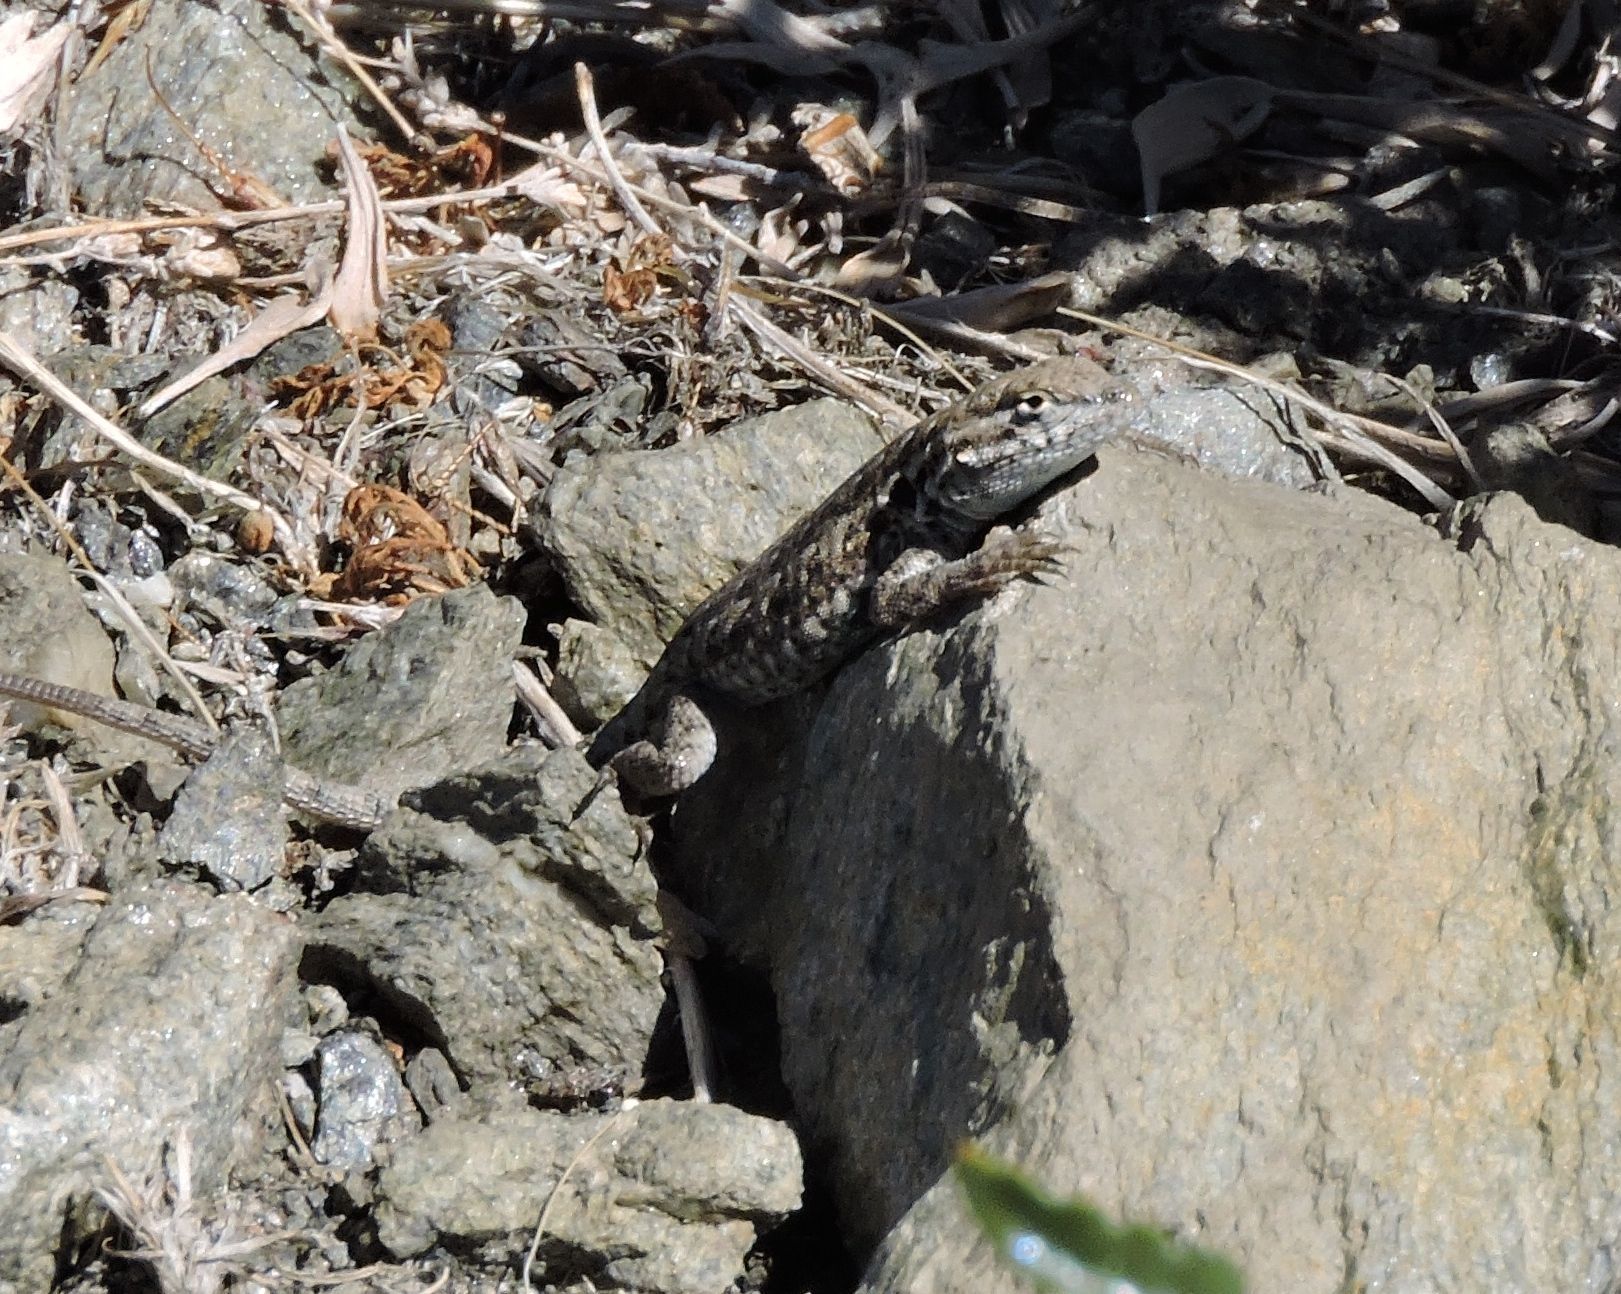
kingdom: Animalia
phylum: Chordata
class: Squamata
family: Phrynosomatidae
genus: Uta
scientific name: Uta stansburiana
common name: Side-blotched lizard
